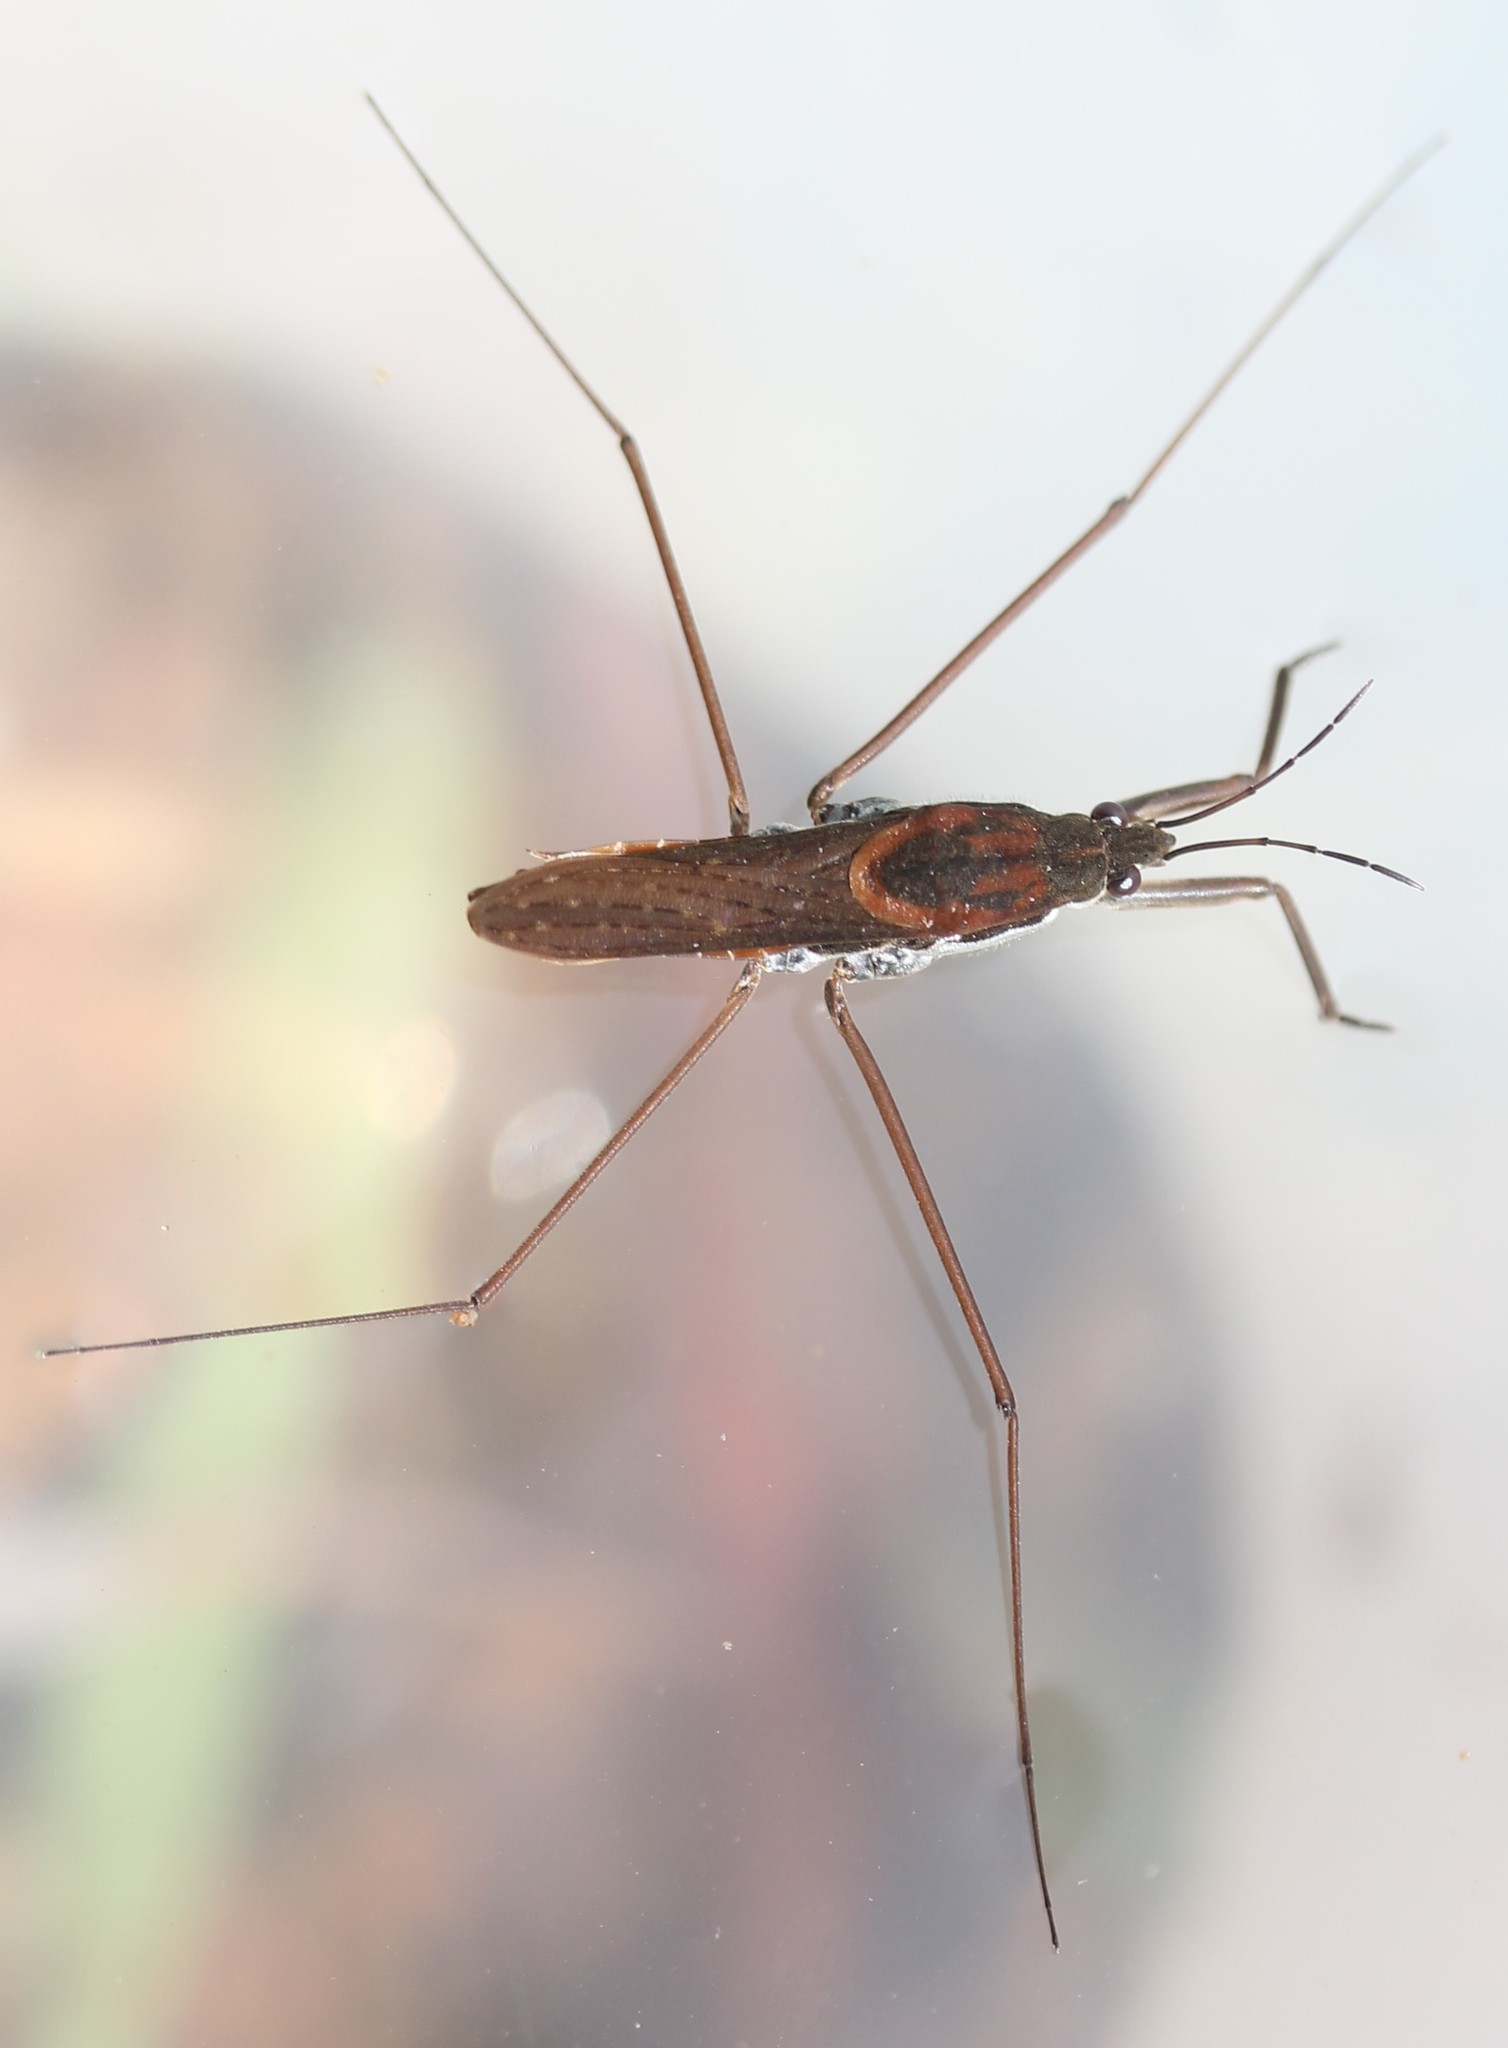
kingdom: Animalia
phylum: Arthropoda
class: Insecta
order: Hemiptera
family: Gerridae
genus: Aquarius
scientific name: Aquarius remigis
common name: Common water strider
